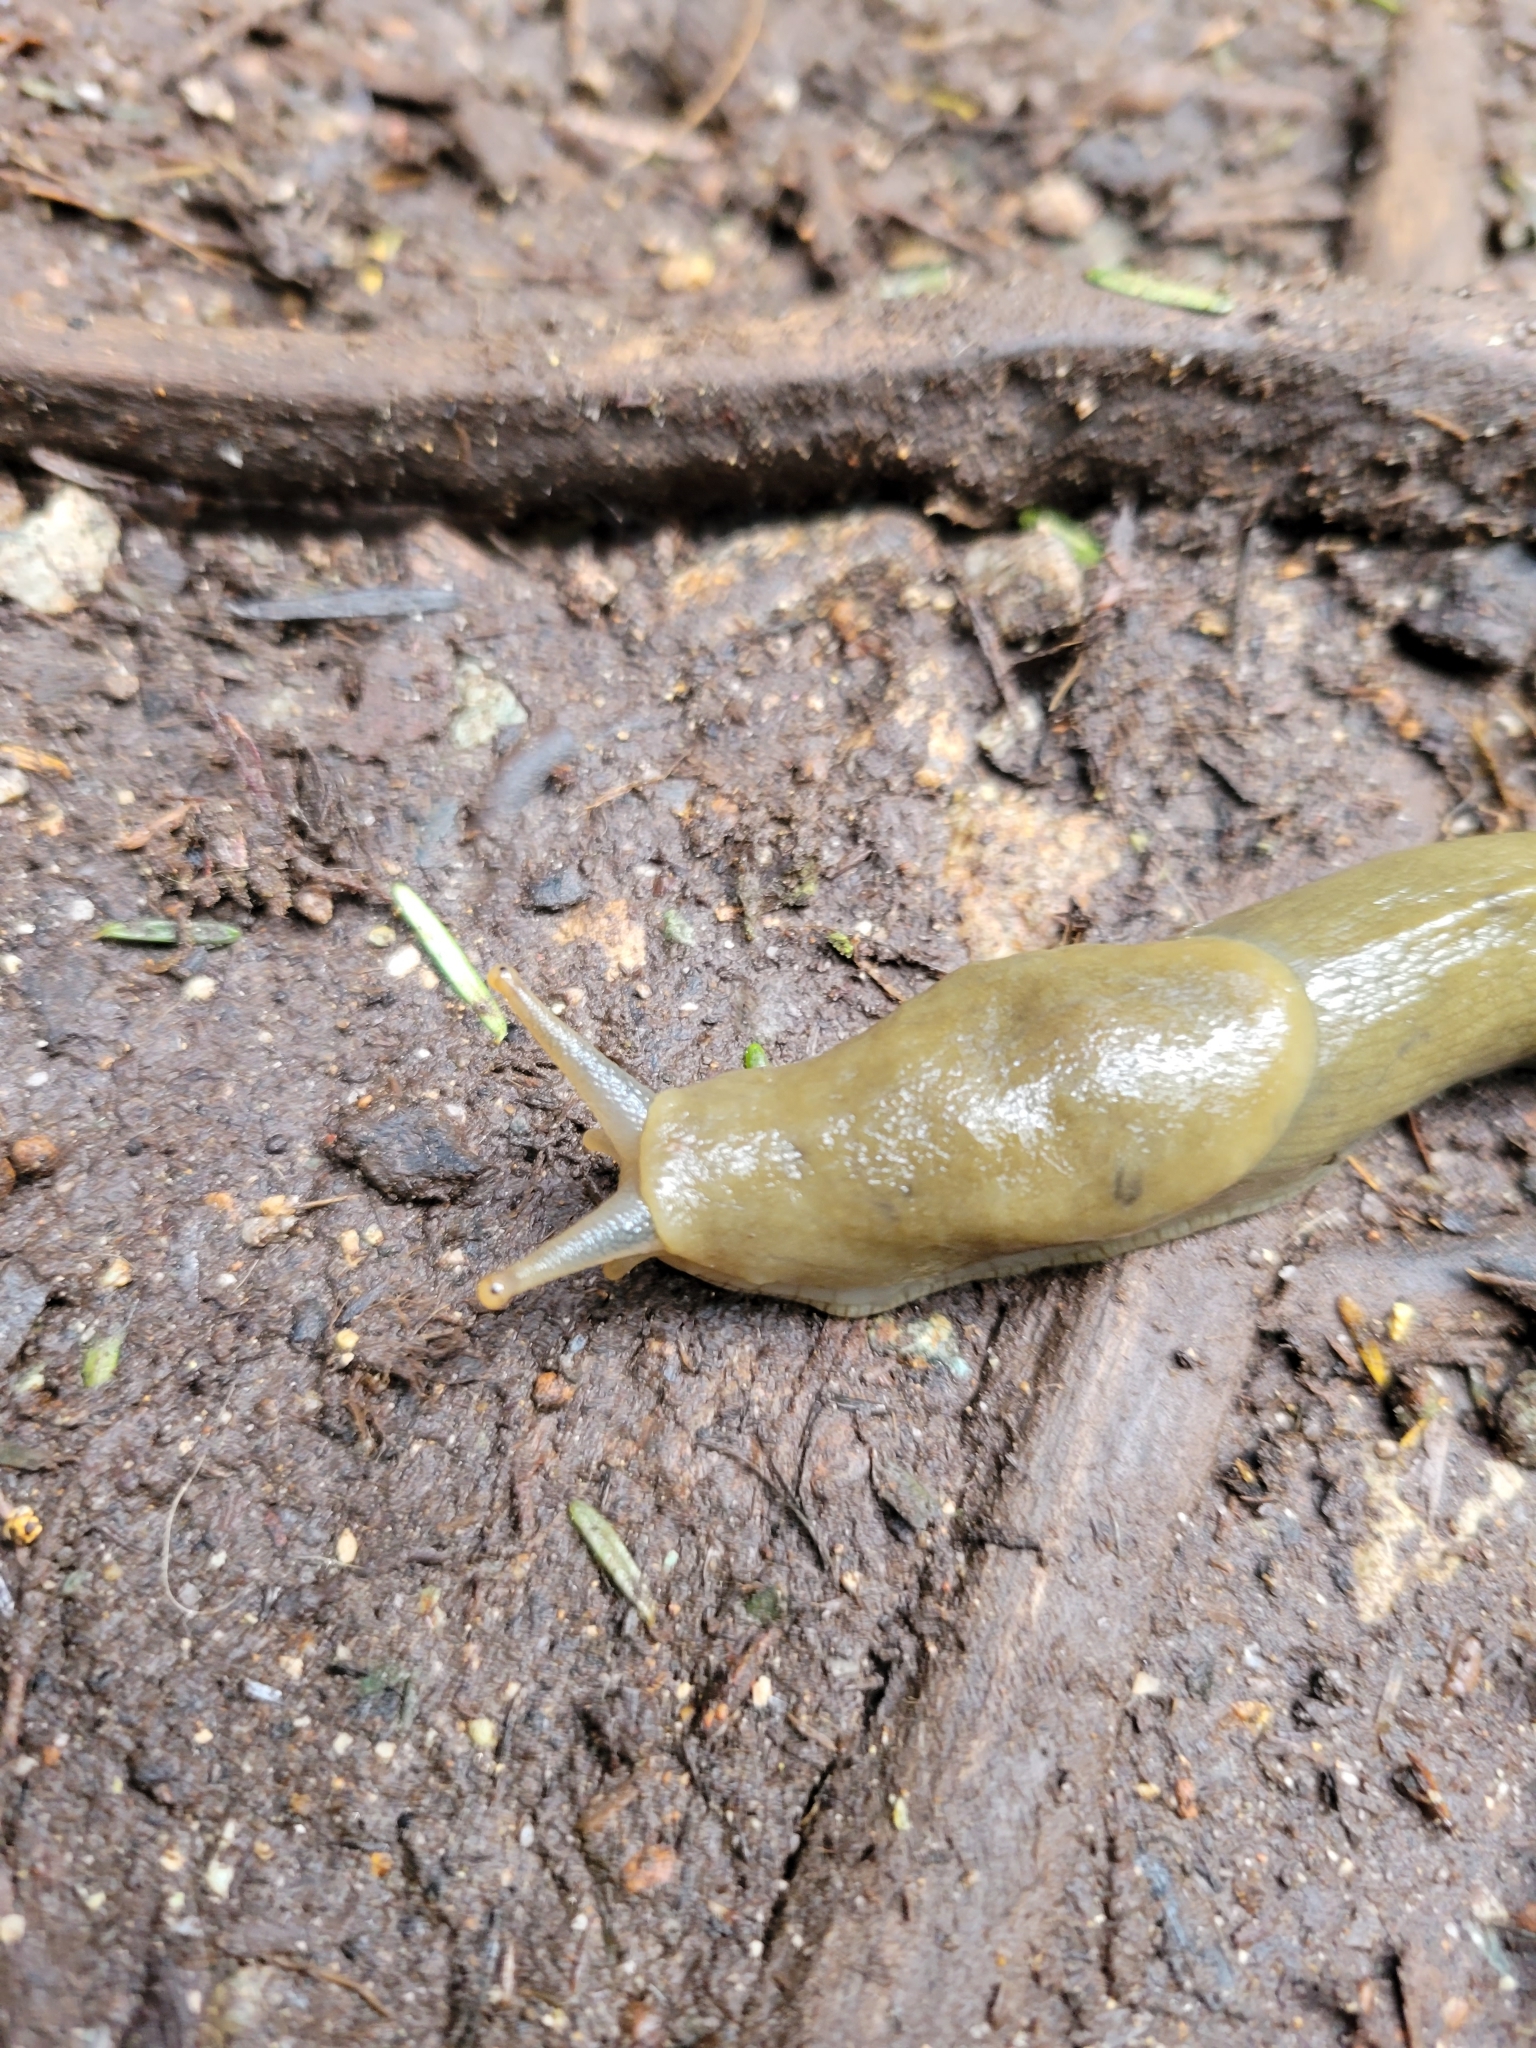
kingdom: Animalia
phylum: Mollusca
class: Gastropoda
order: Stylommatophora
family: Ariolimacidae
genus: Ariolimax
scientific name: Ariolimax columbianus
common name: Pacific banana slug
